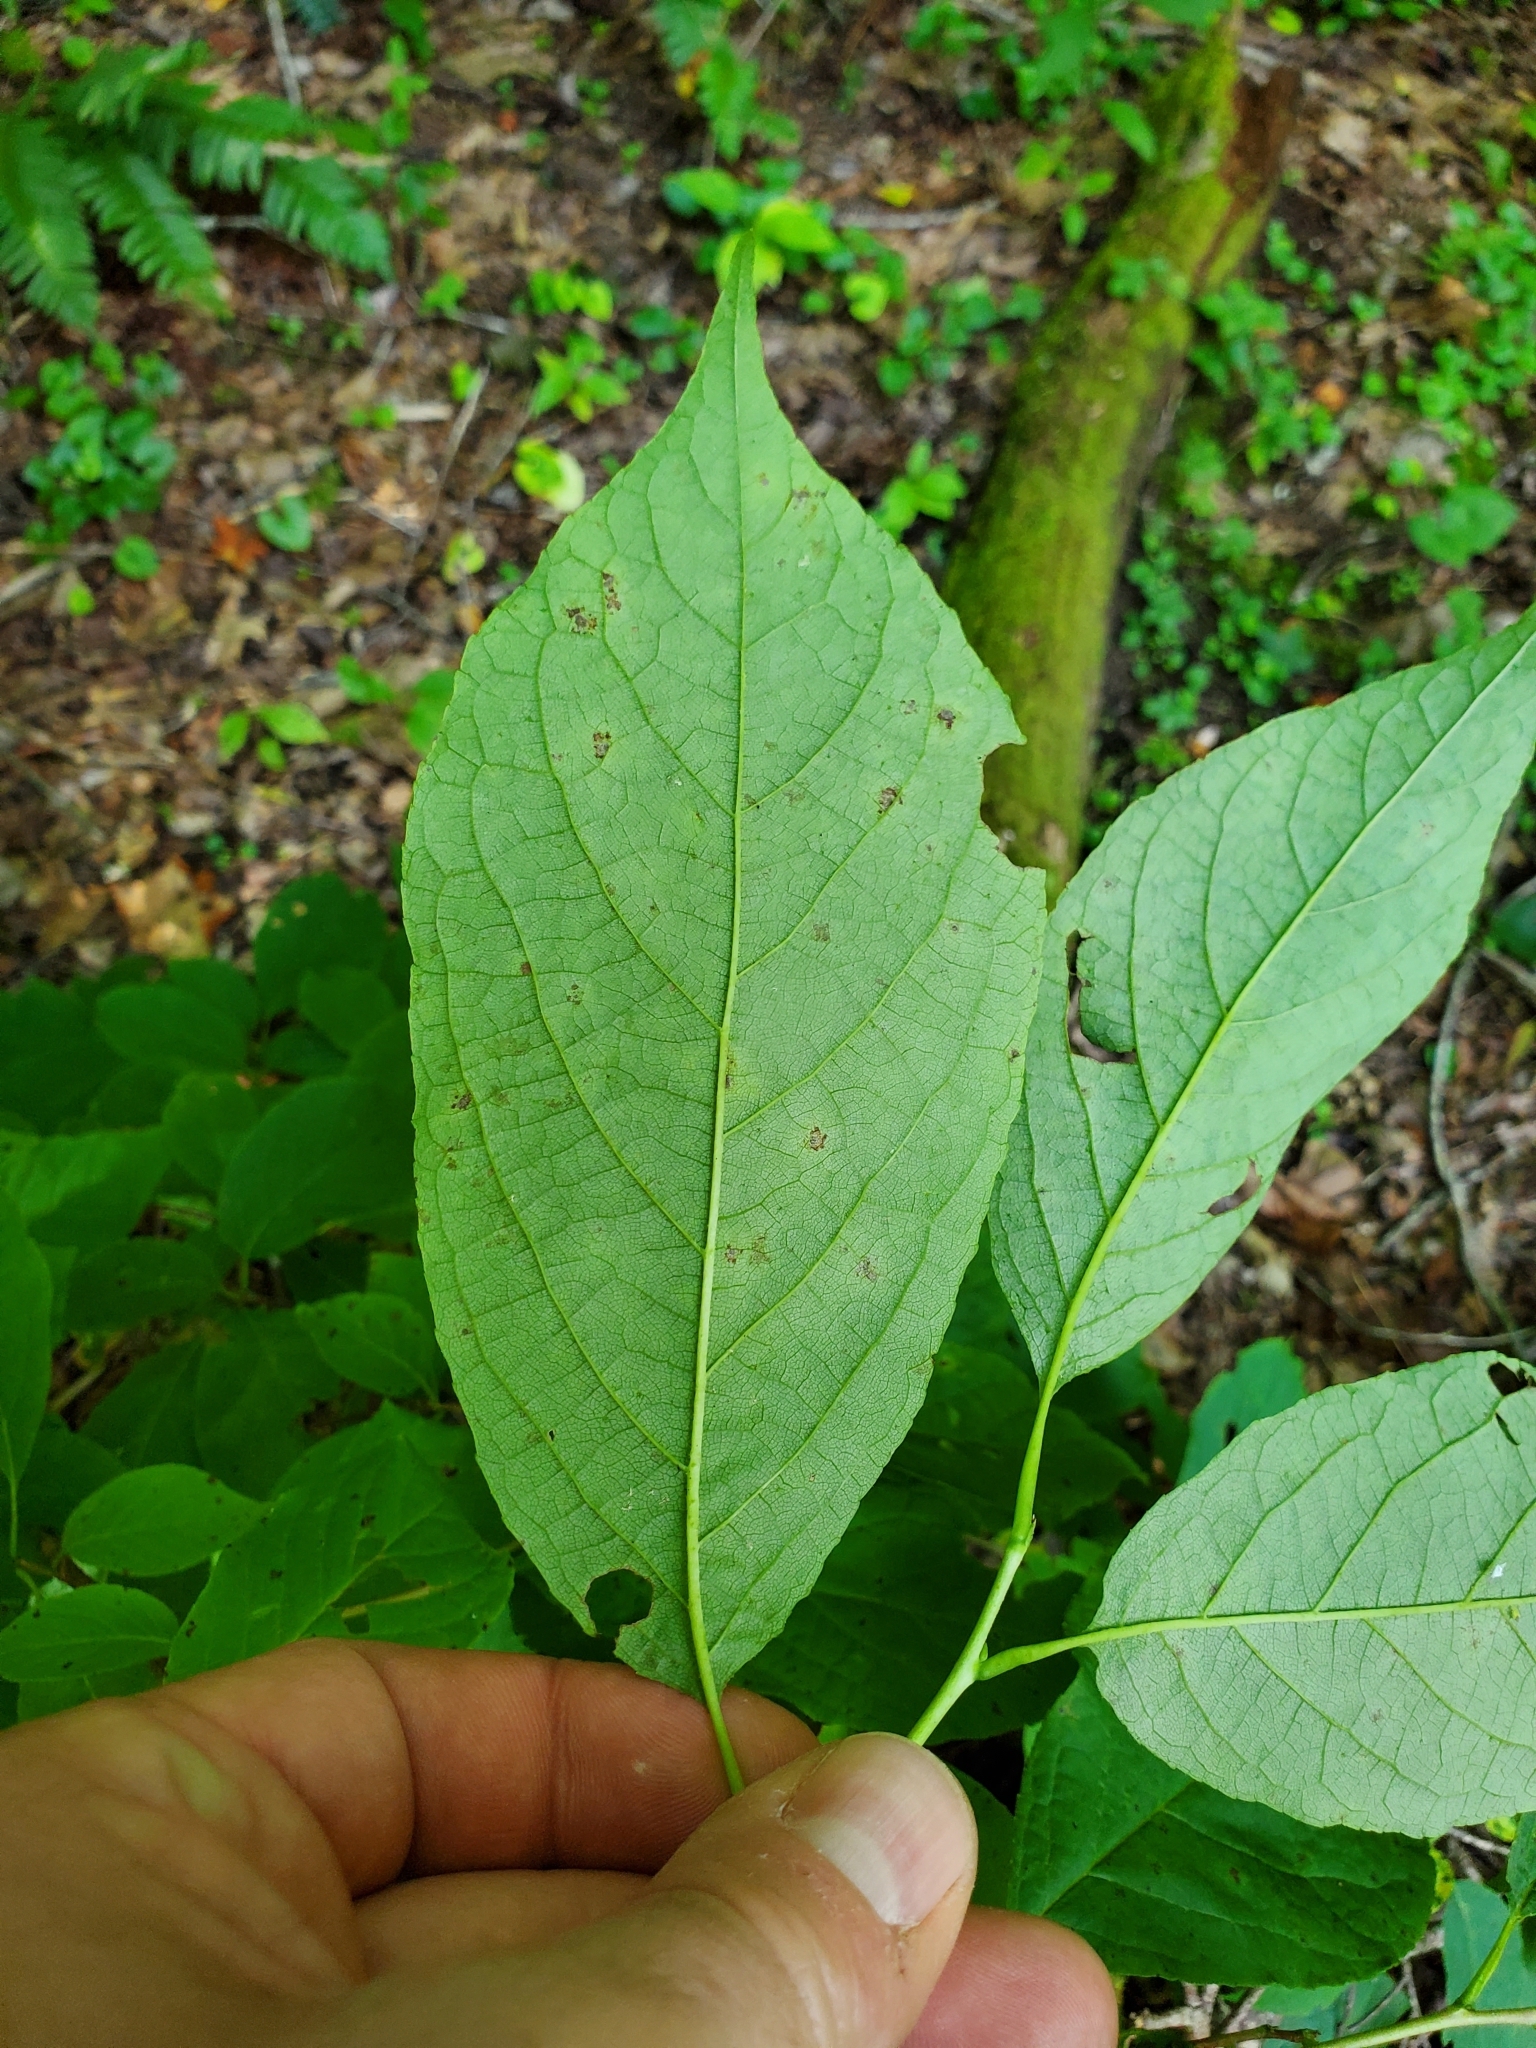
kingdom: Plantae
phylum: Tracheophyta
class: Magnoliopsida
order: Ericales
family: Clethraceae
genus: Clethra
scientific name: Clethra acuminata
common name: Mountain sweet pepperbush
